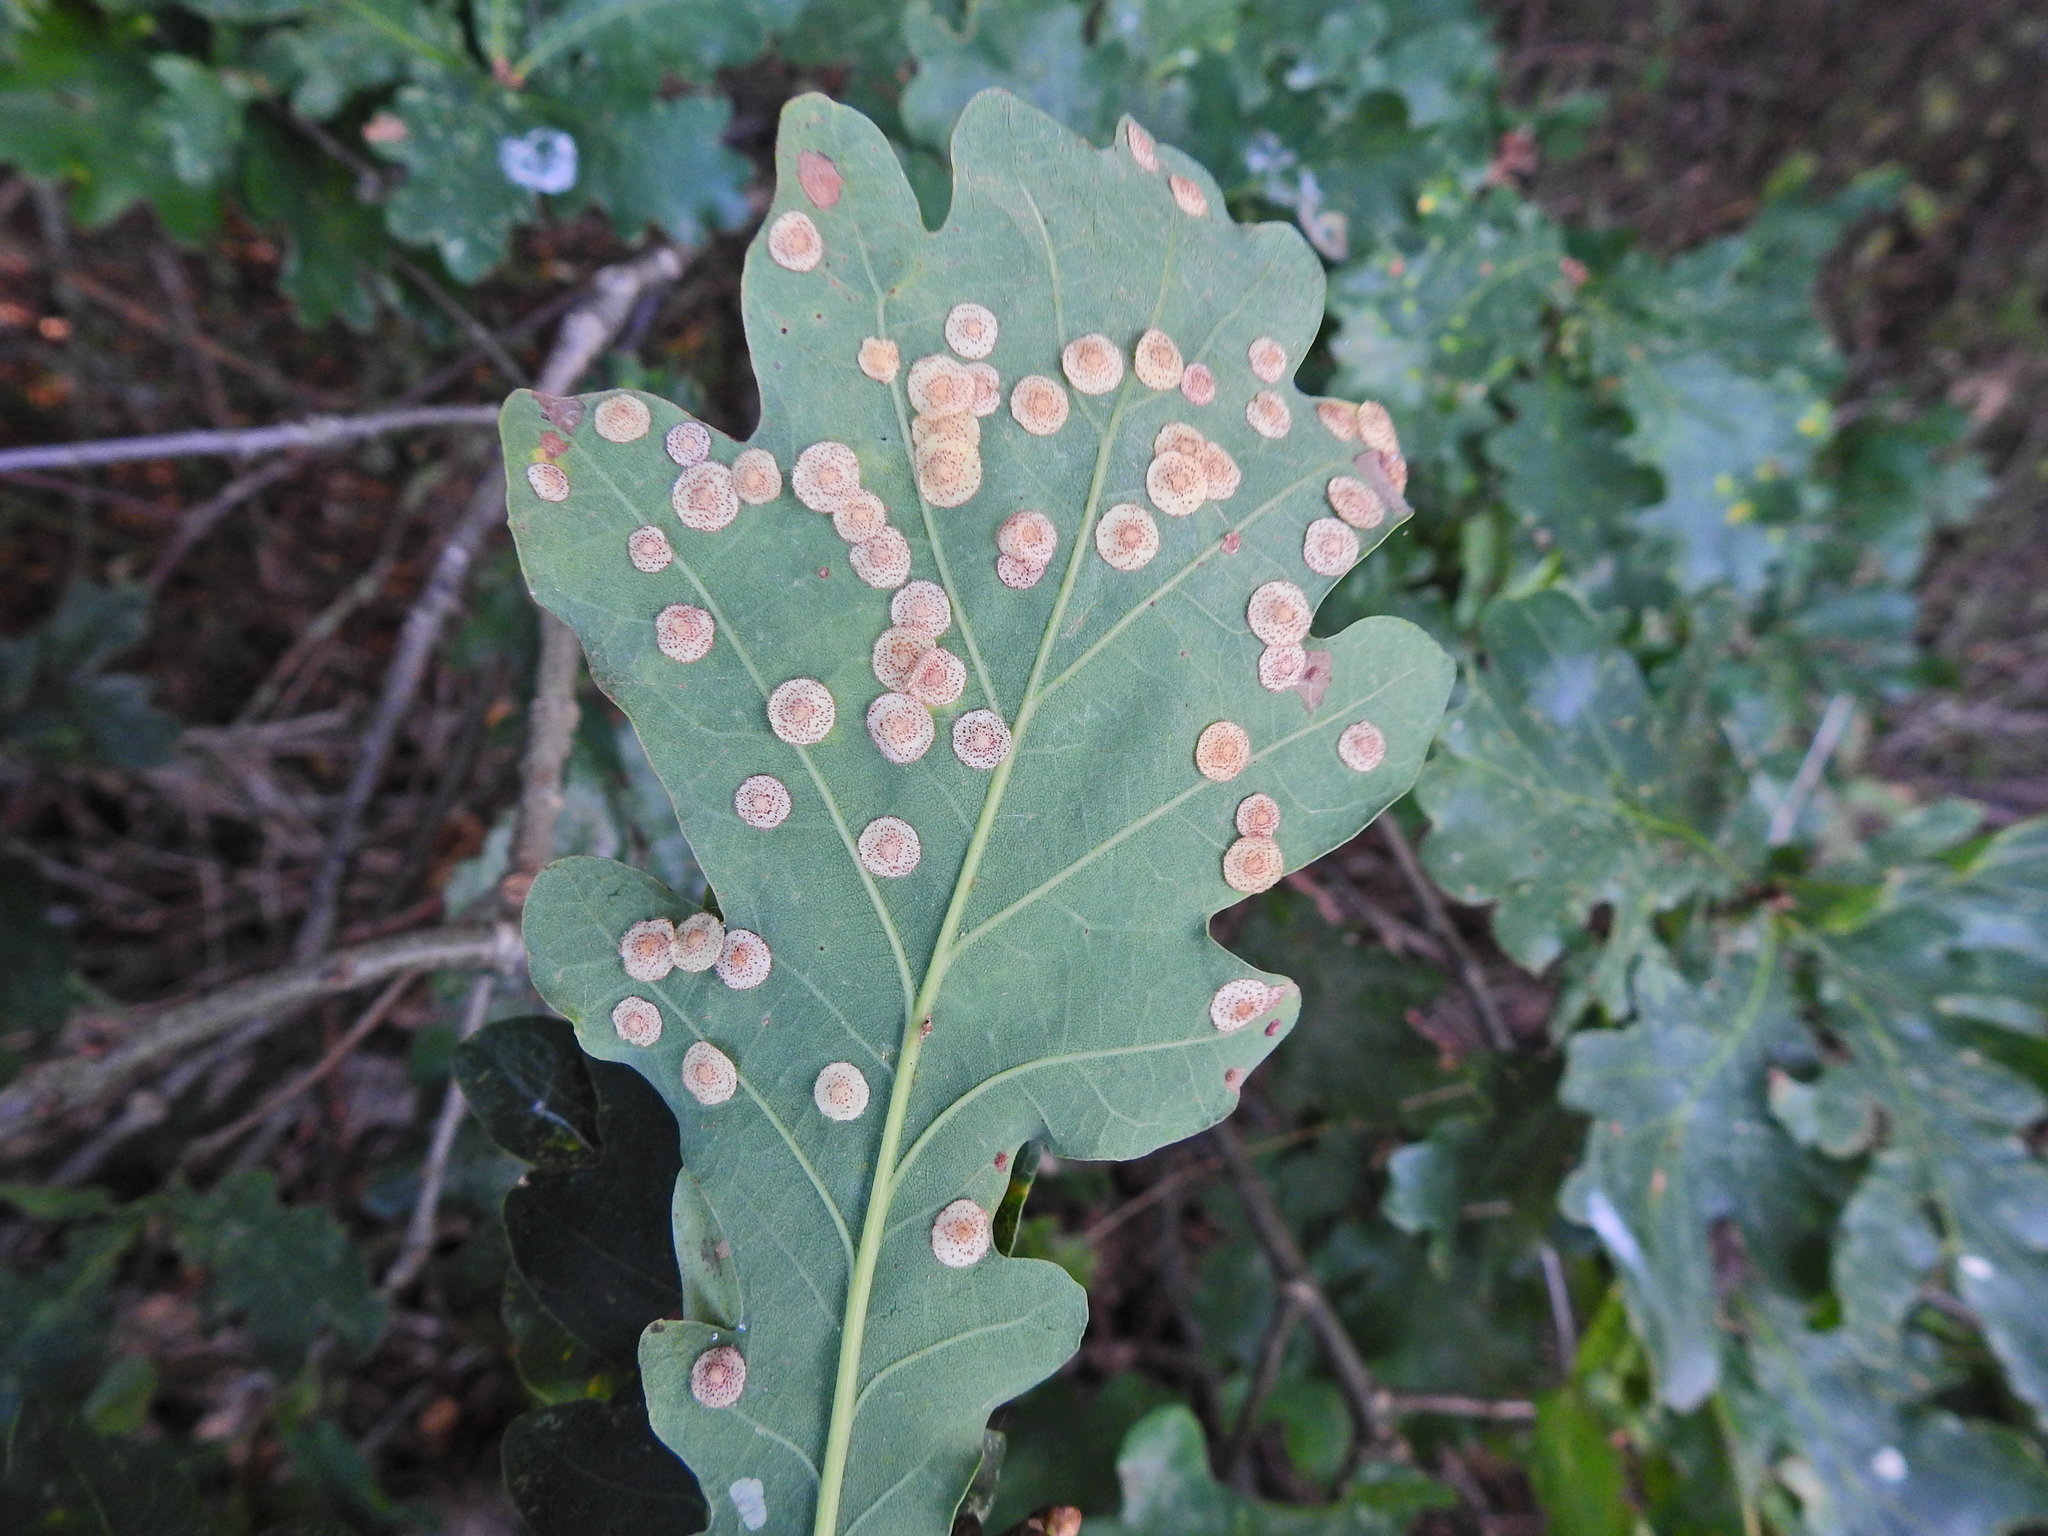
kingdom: Animalia
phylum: Arthropoda
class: Insecta
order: Hymenoptera
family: Cynipidae
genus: Neuroterus
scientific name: Neuroterus quercusbaccarum
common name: Common spangle gall
